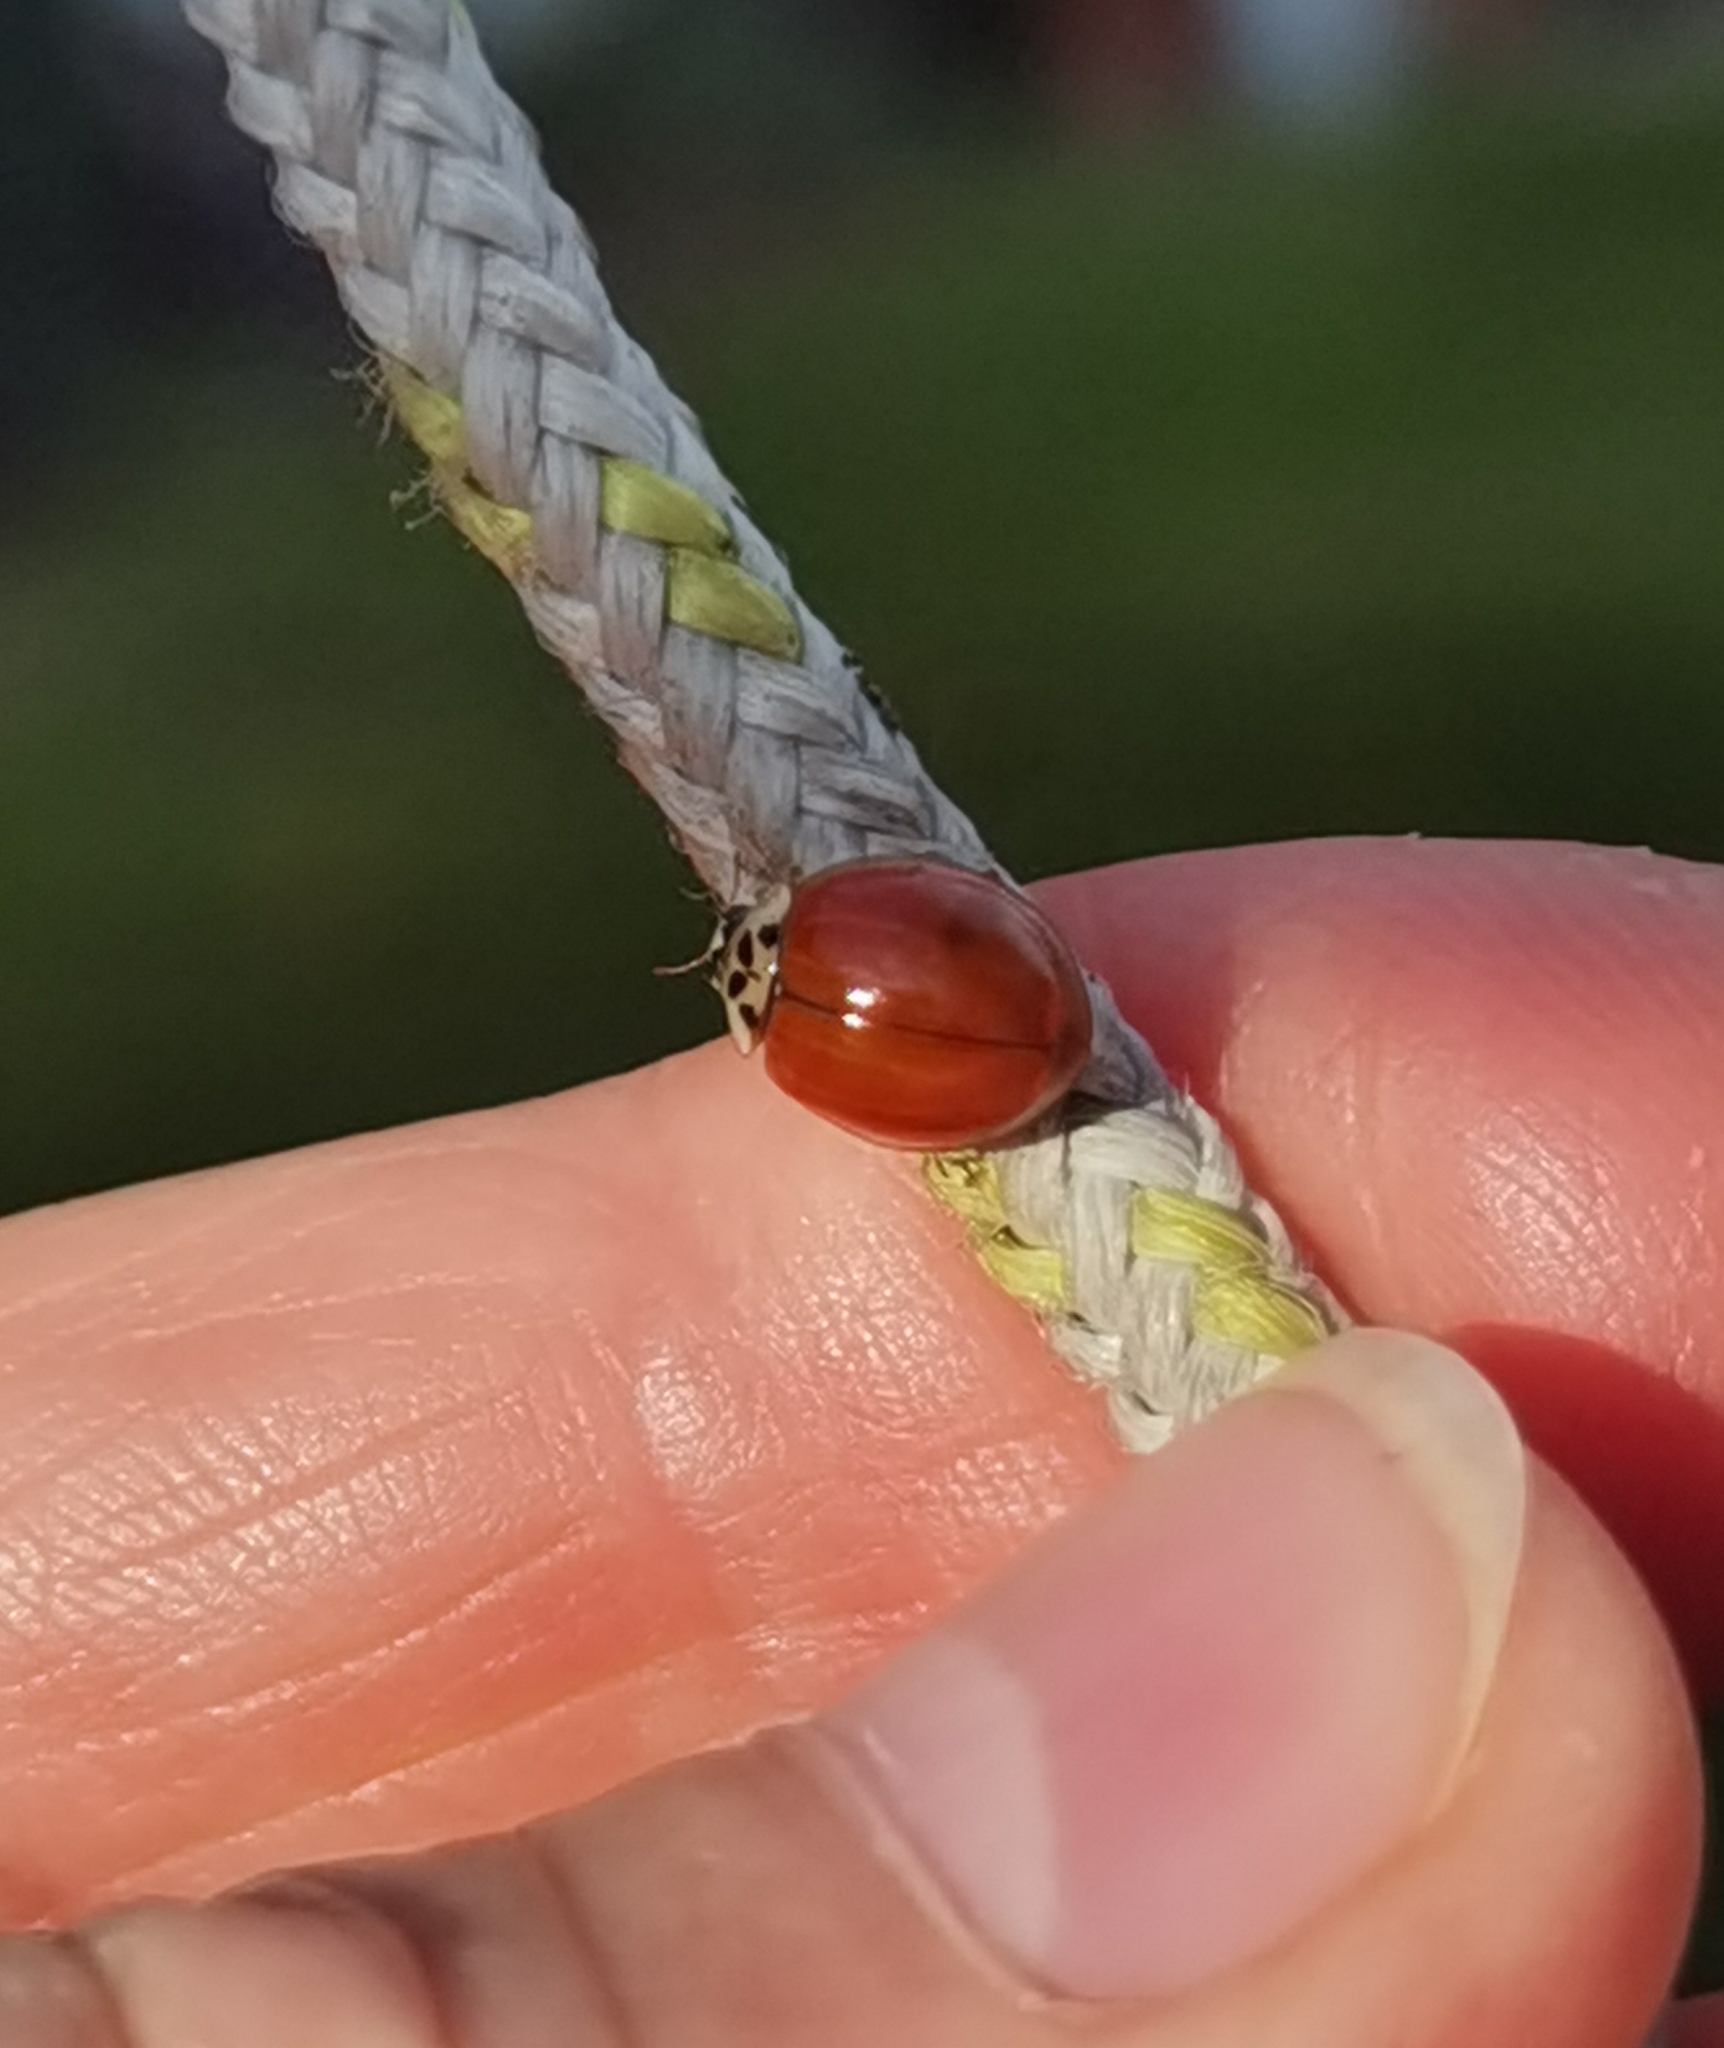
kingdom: Animalia
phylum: Arthropoda
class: Insecta
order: Coleoptera
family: Coccinellidae
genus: Harmonia
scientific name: Harmonia axyridis
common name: Harlequin ladybird
